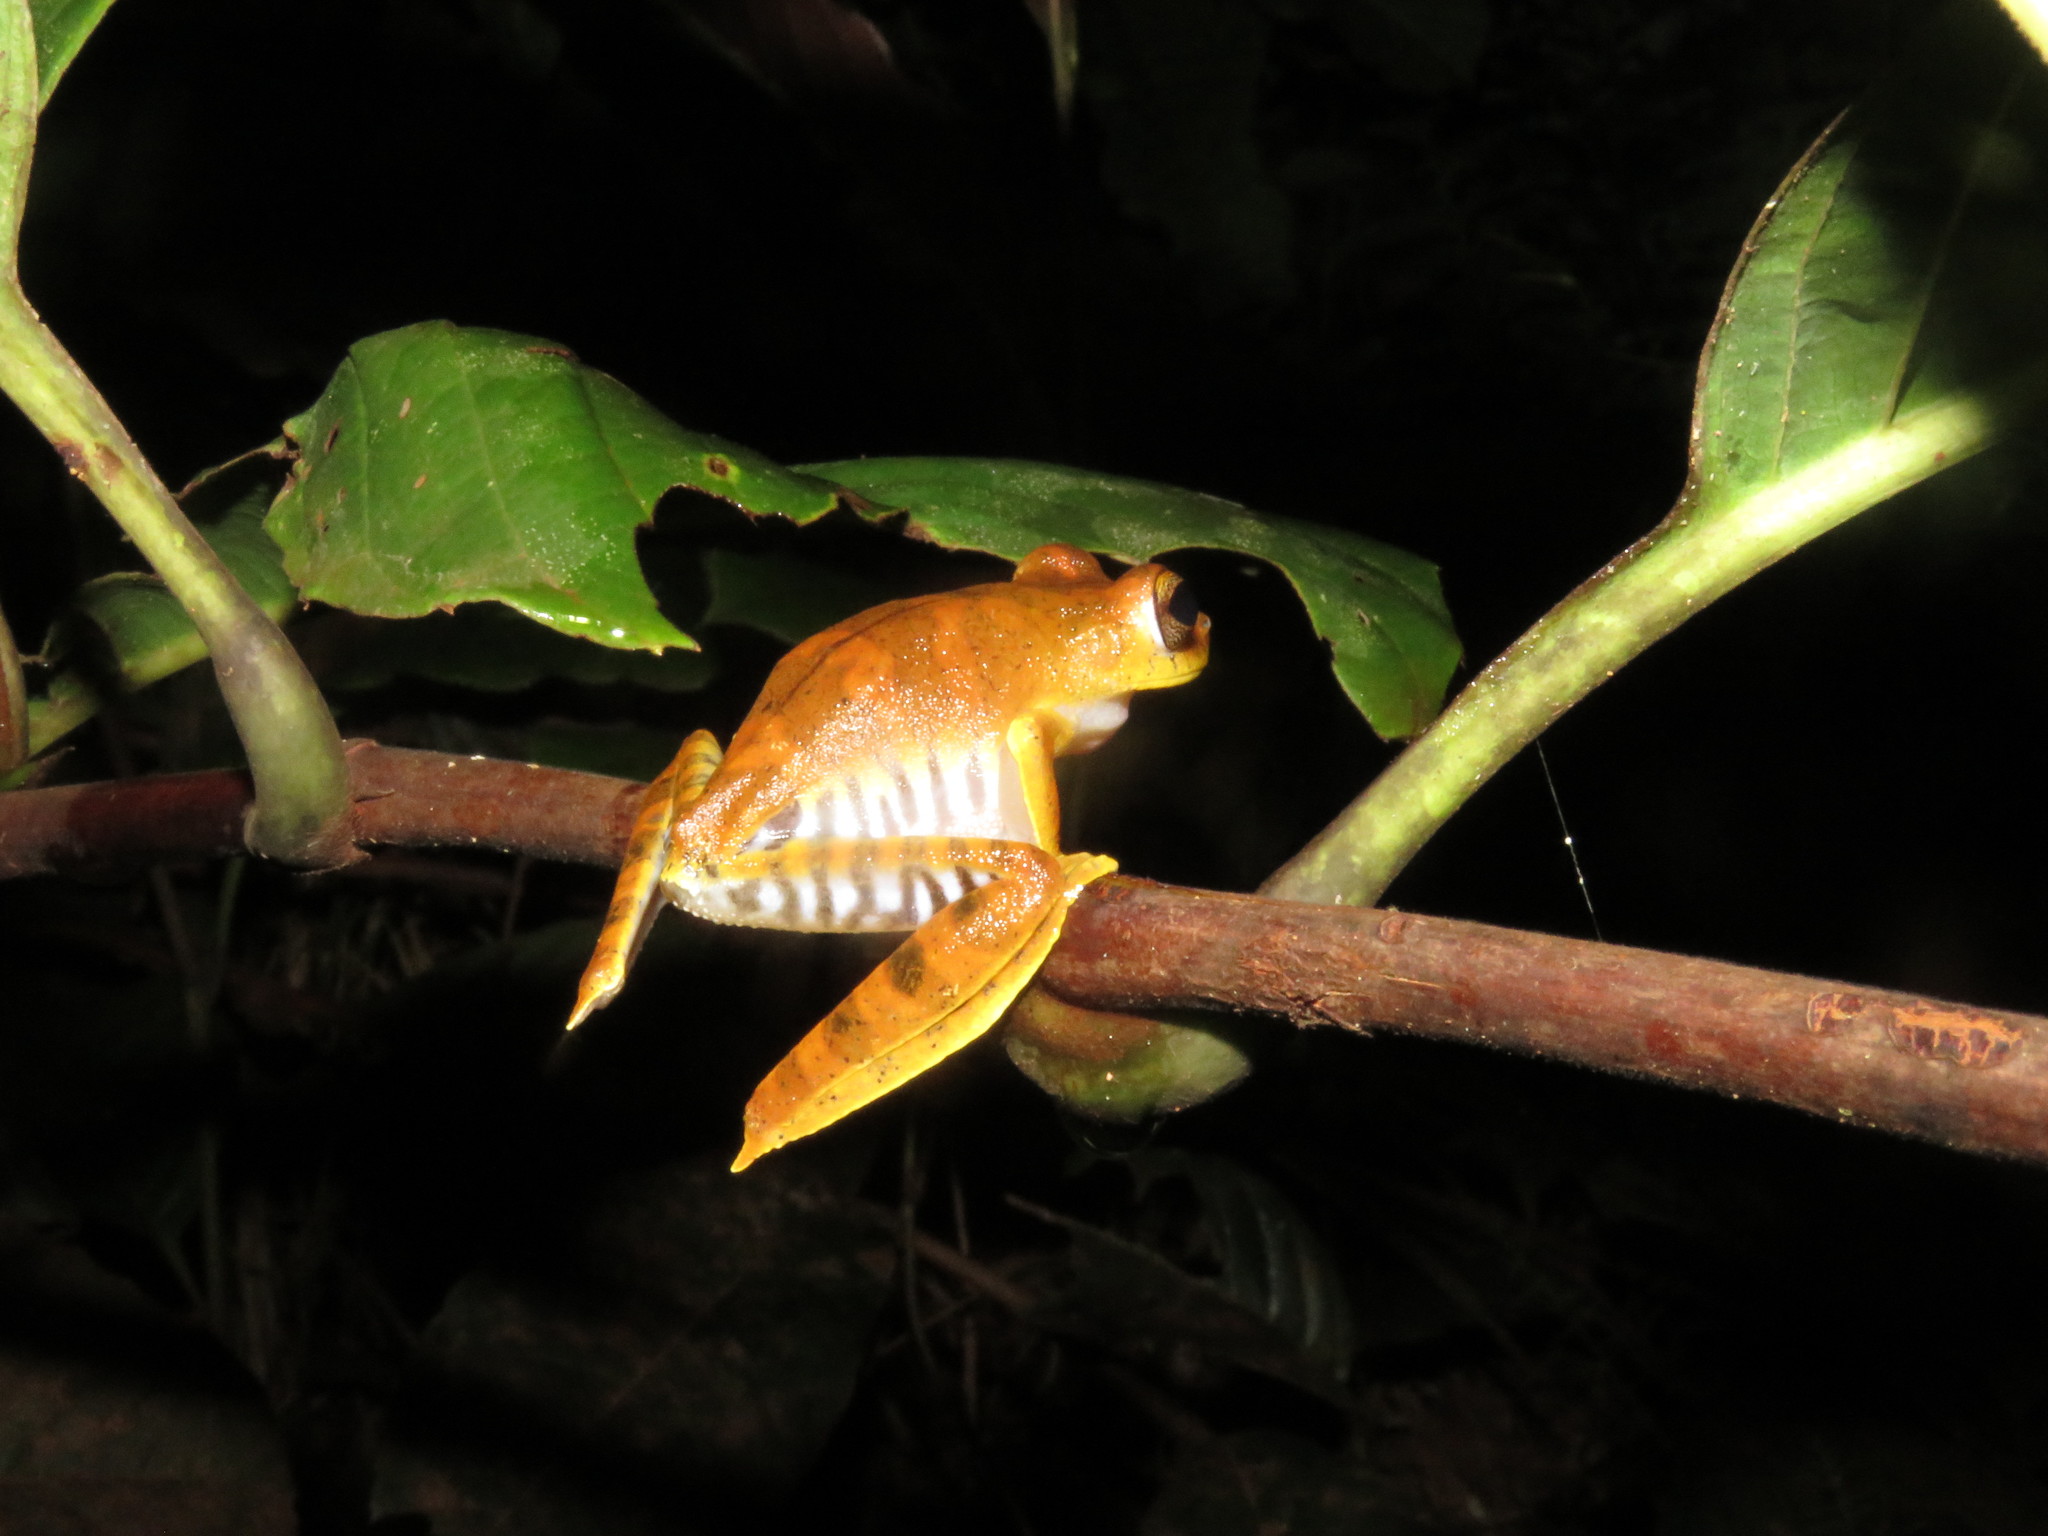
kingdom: Animalia
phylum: Chordata
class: Amphibia
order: Anura
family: Hylidae
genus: Boana
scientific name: Boana geographica
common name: Map treefrog
